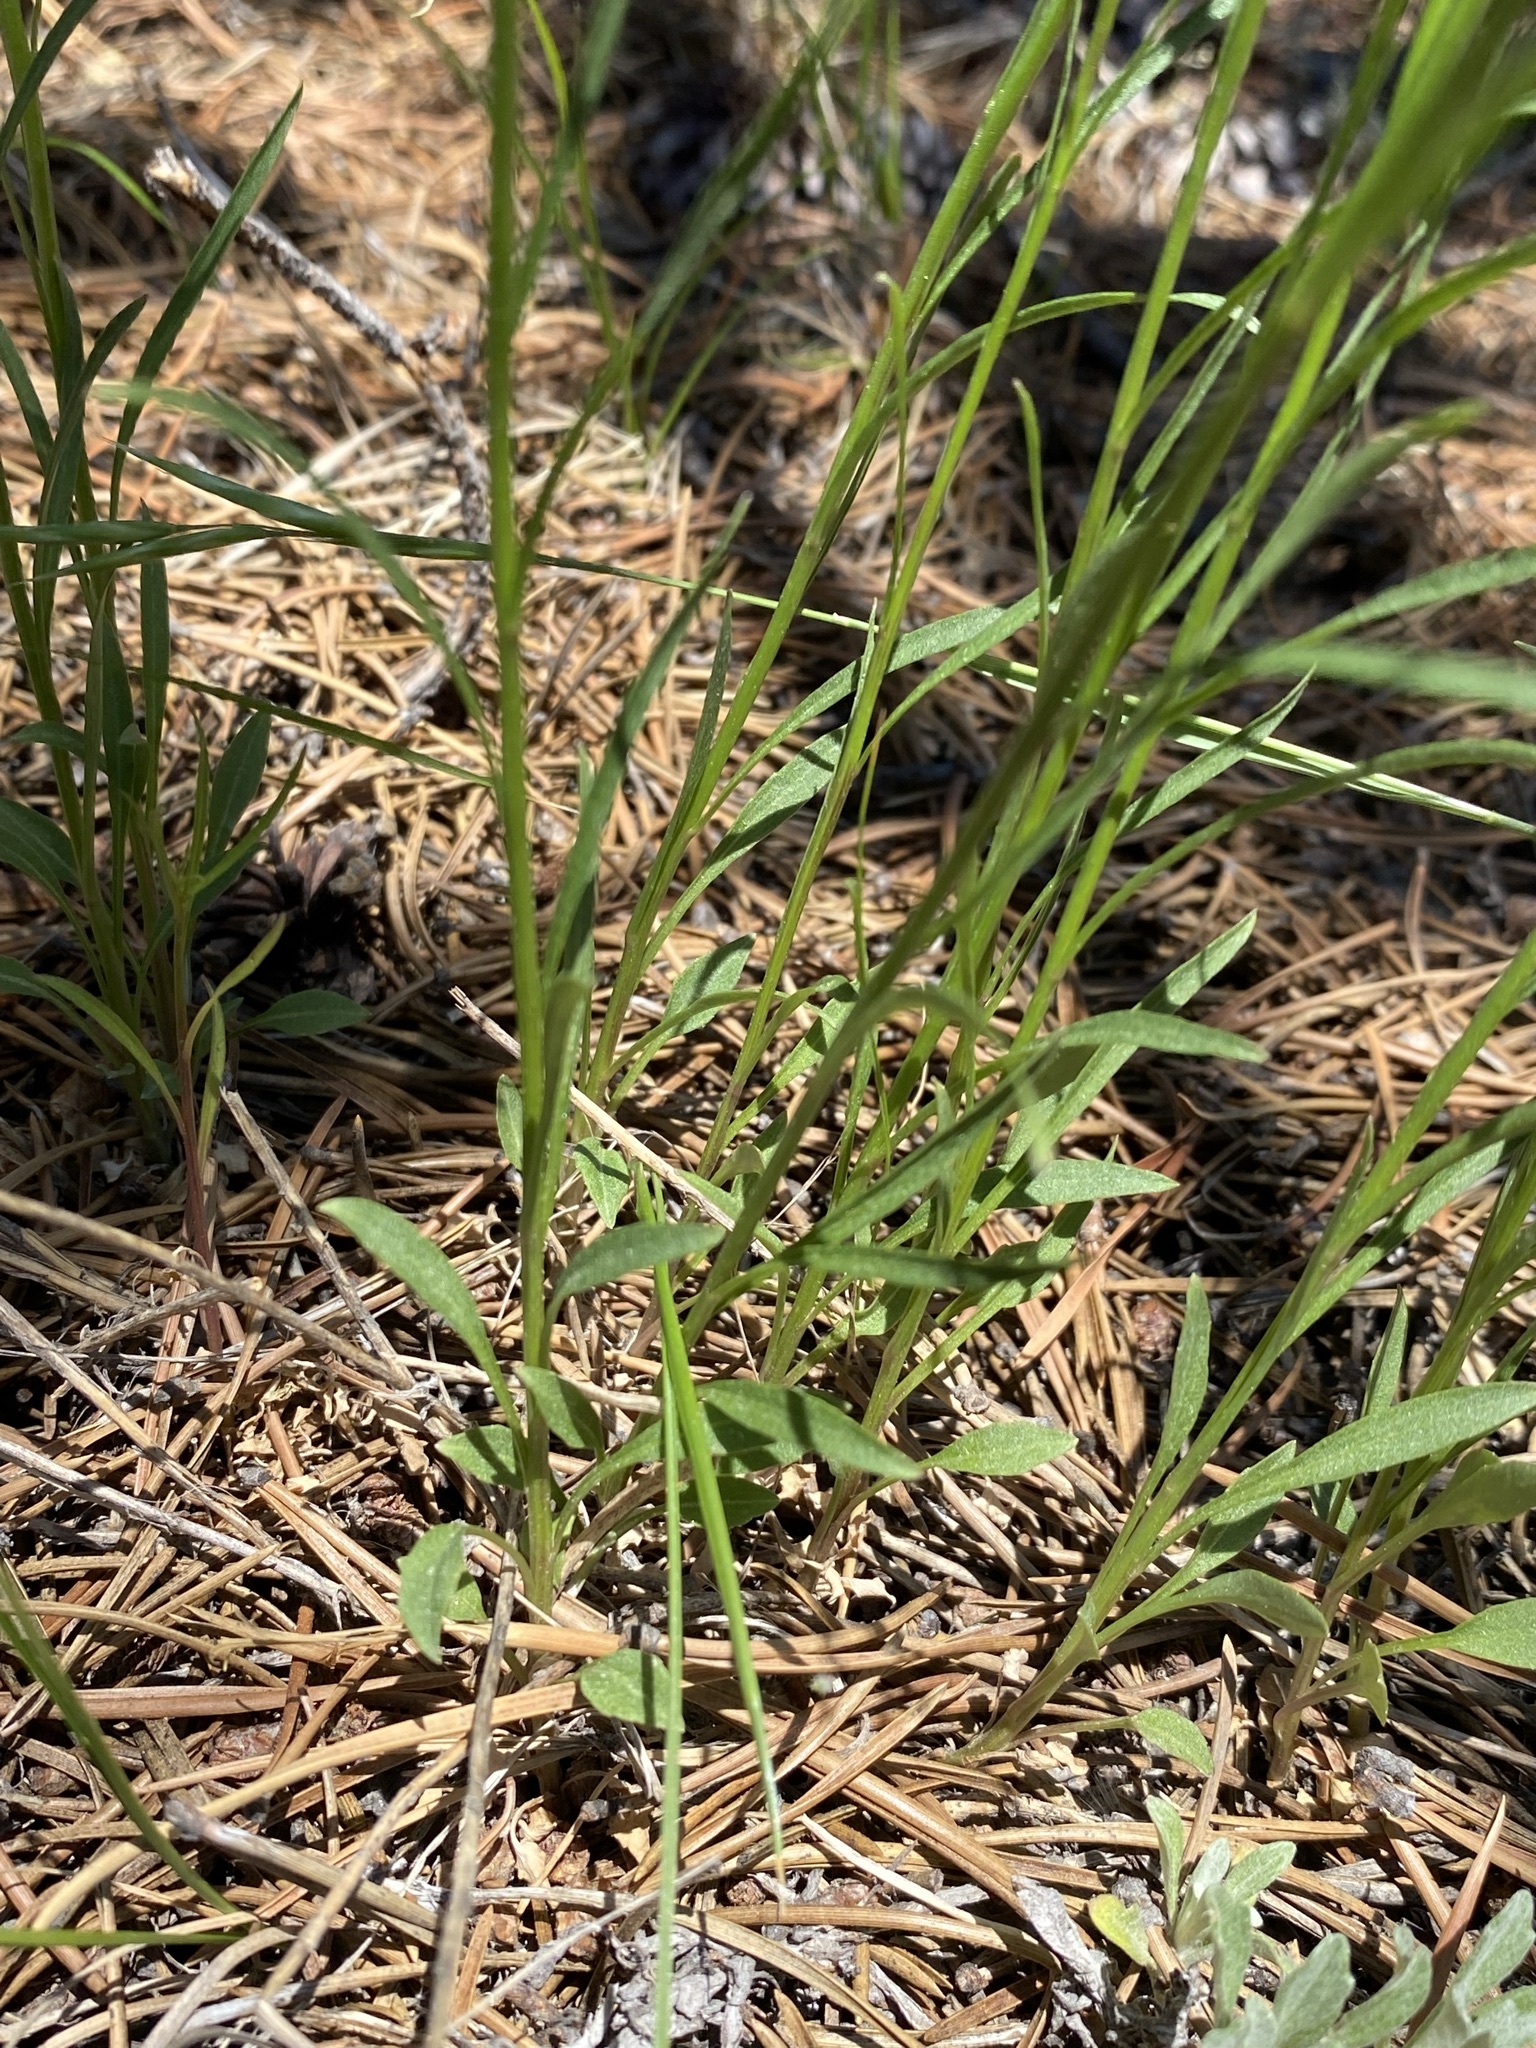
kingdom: Plantae
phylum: Tracheophyta
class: Magnoliopsida
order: Asterales
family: Campanulaceae
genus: Campanula
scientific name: Campanula petiolata
